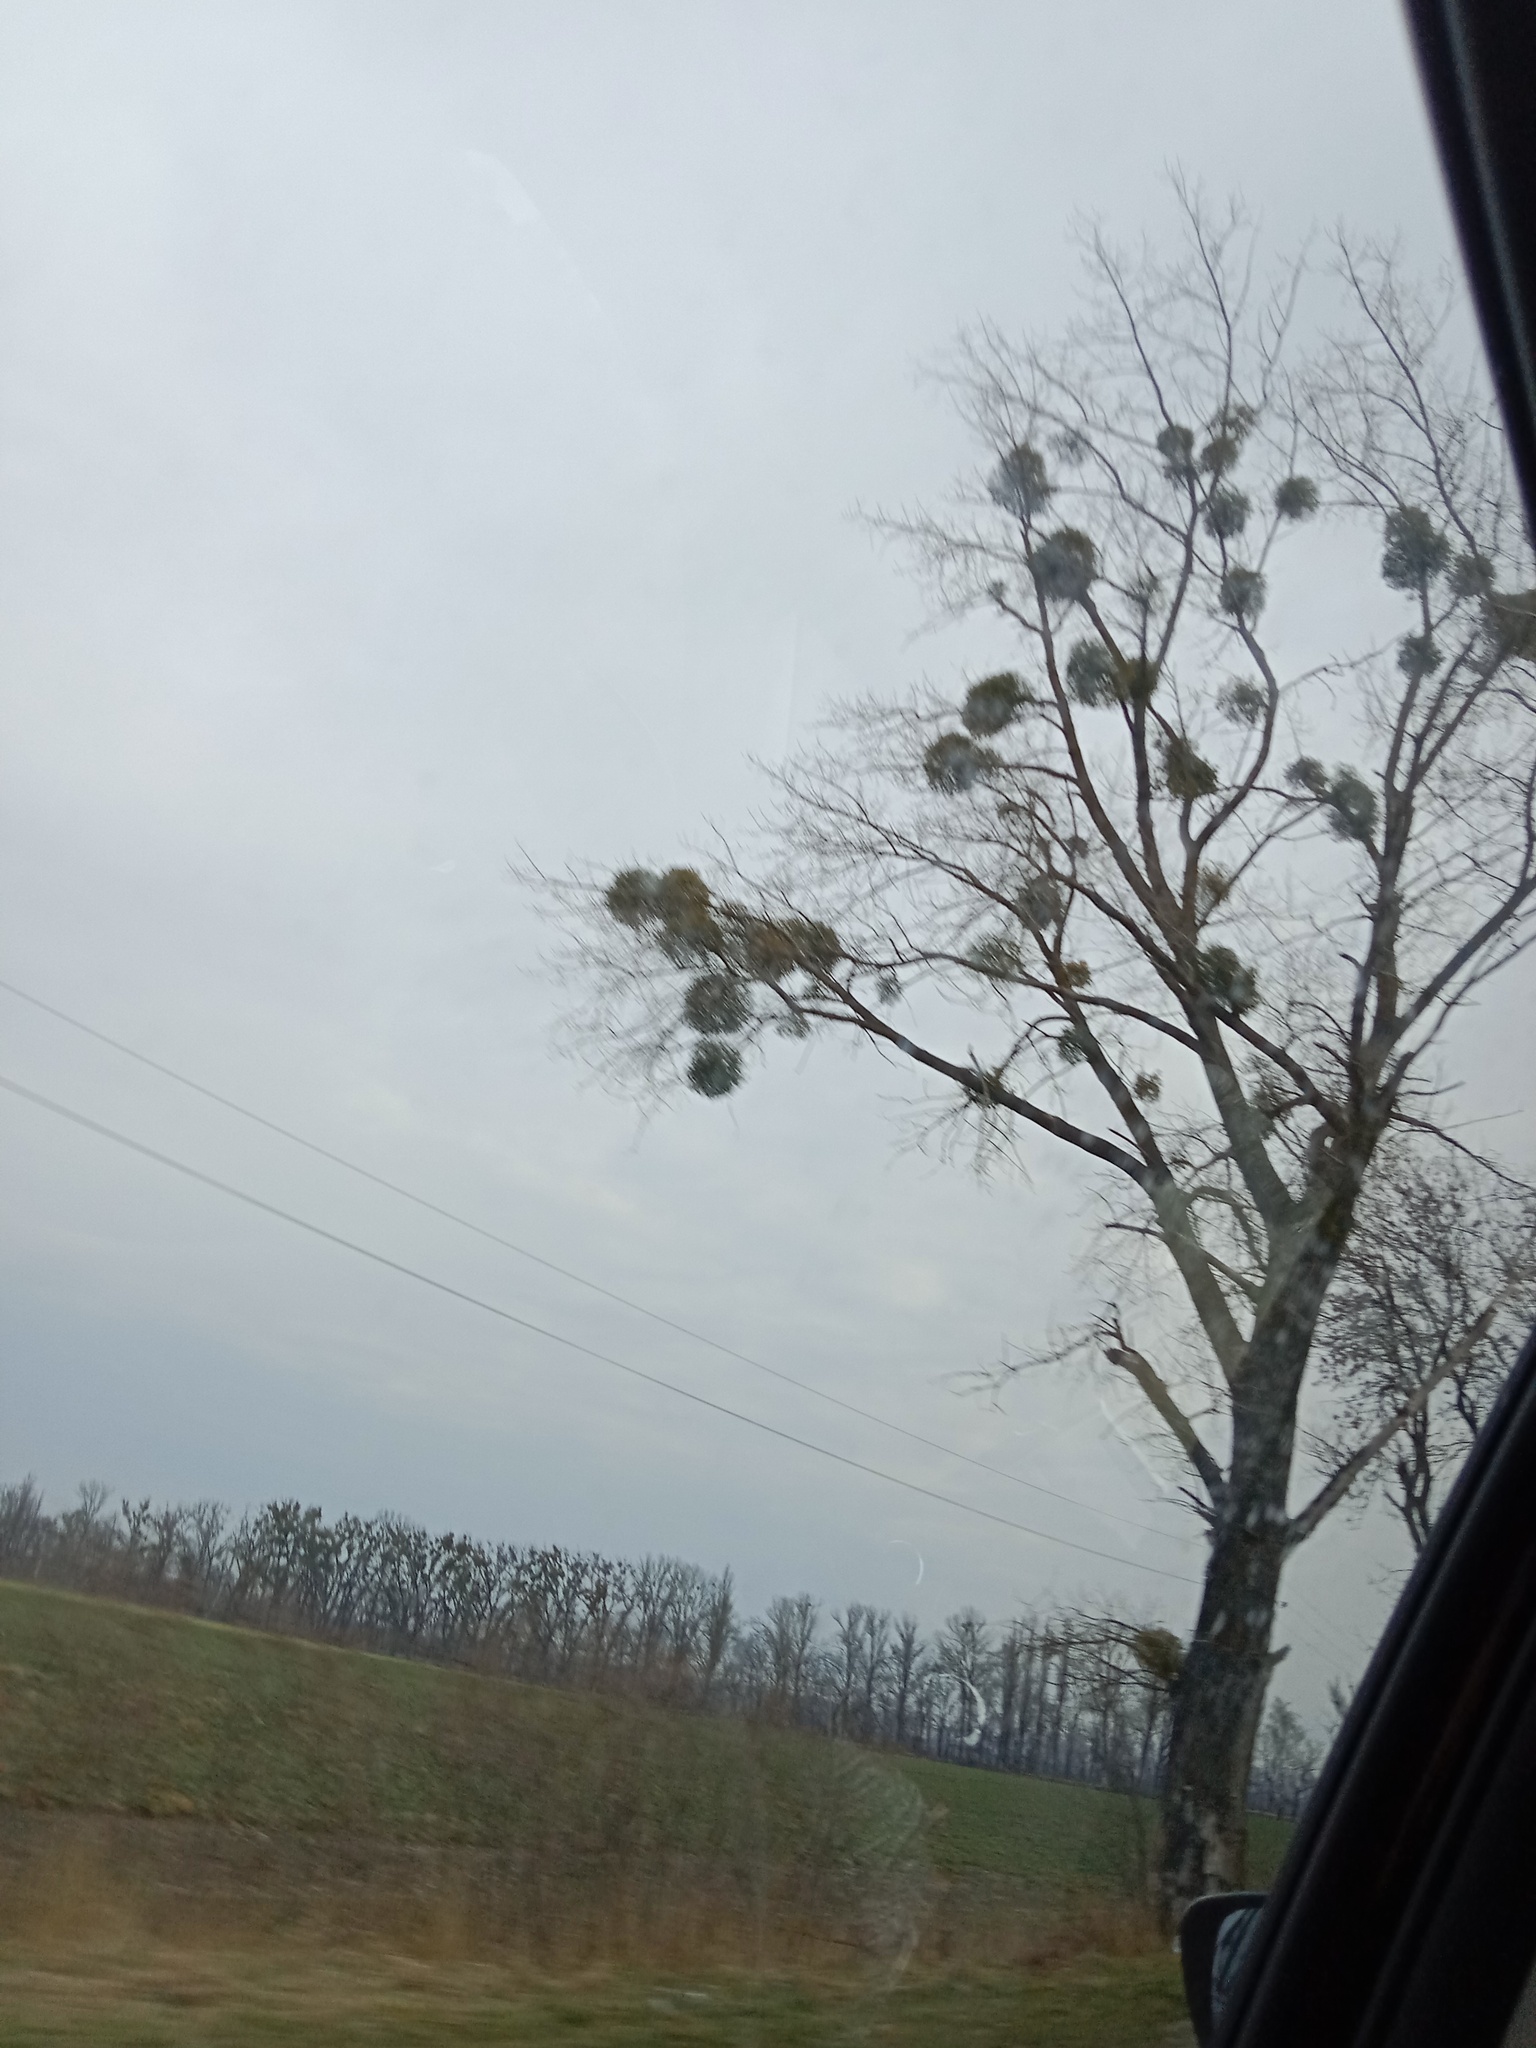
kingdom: Plantae
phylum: Tracheophyta
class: Magnoliopsida
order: Santalales
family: Viscaceae
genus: Viscum
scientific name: Viscum album
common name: Mistletoe
